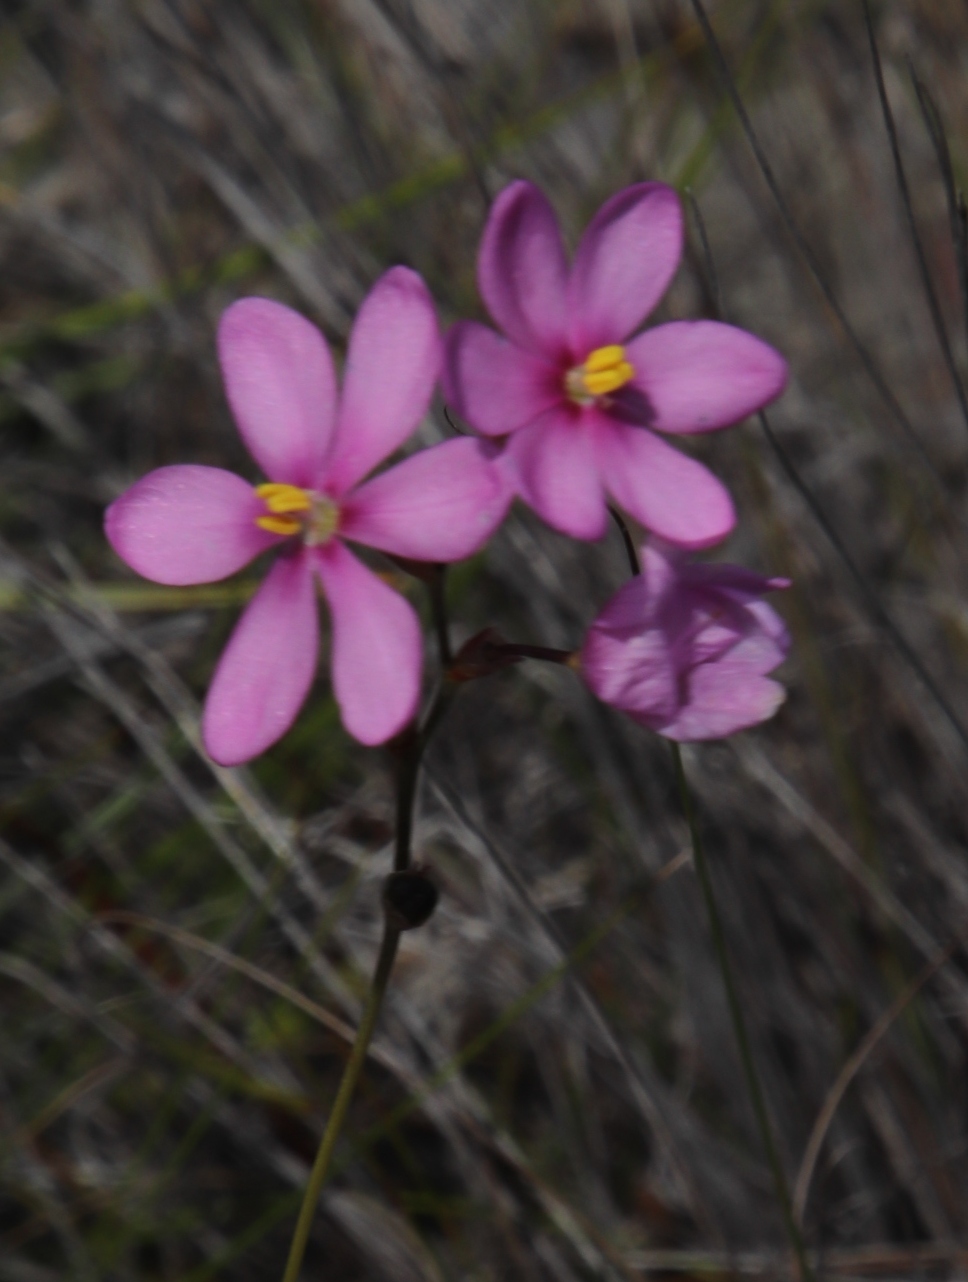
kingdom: Plantae
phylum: Tracheophyta
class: Liliopsida
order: Asparagales
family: Iridaceae
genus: Ixia
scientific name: Ixia stricta
